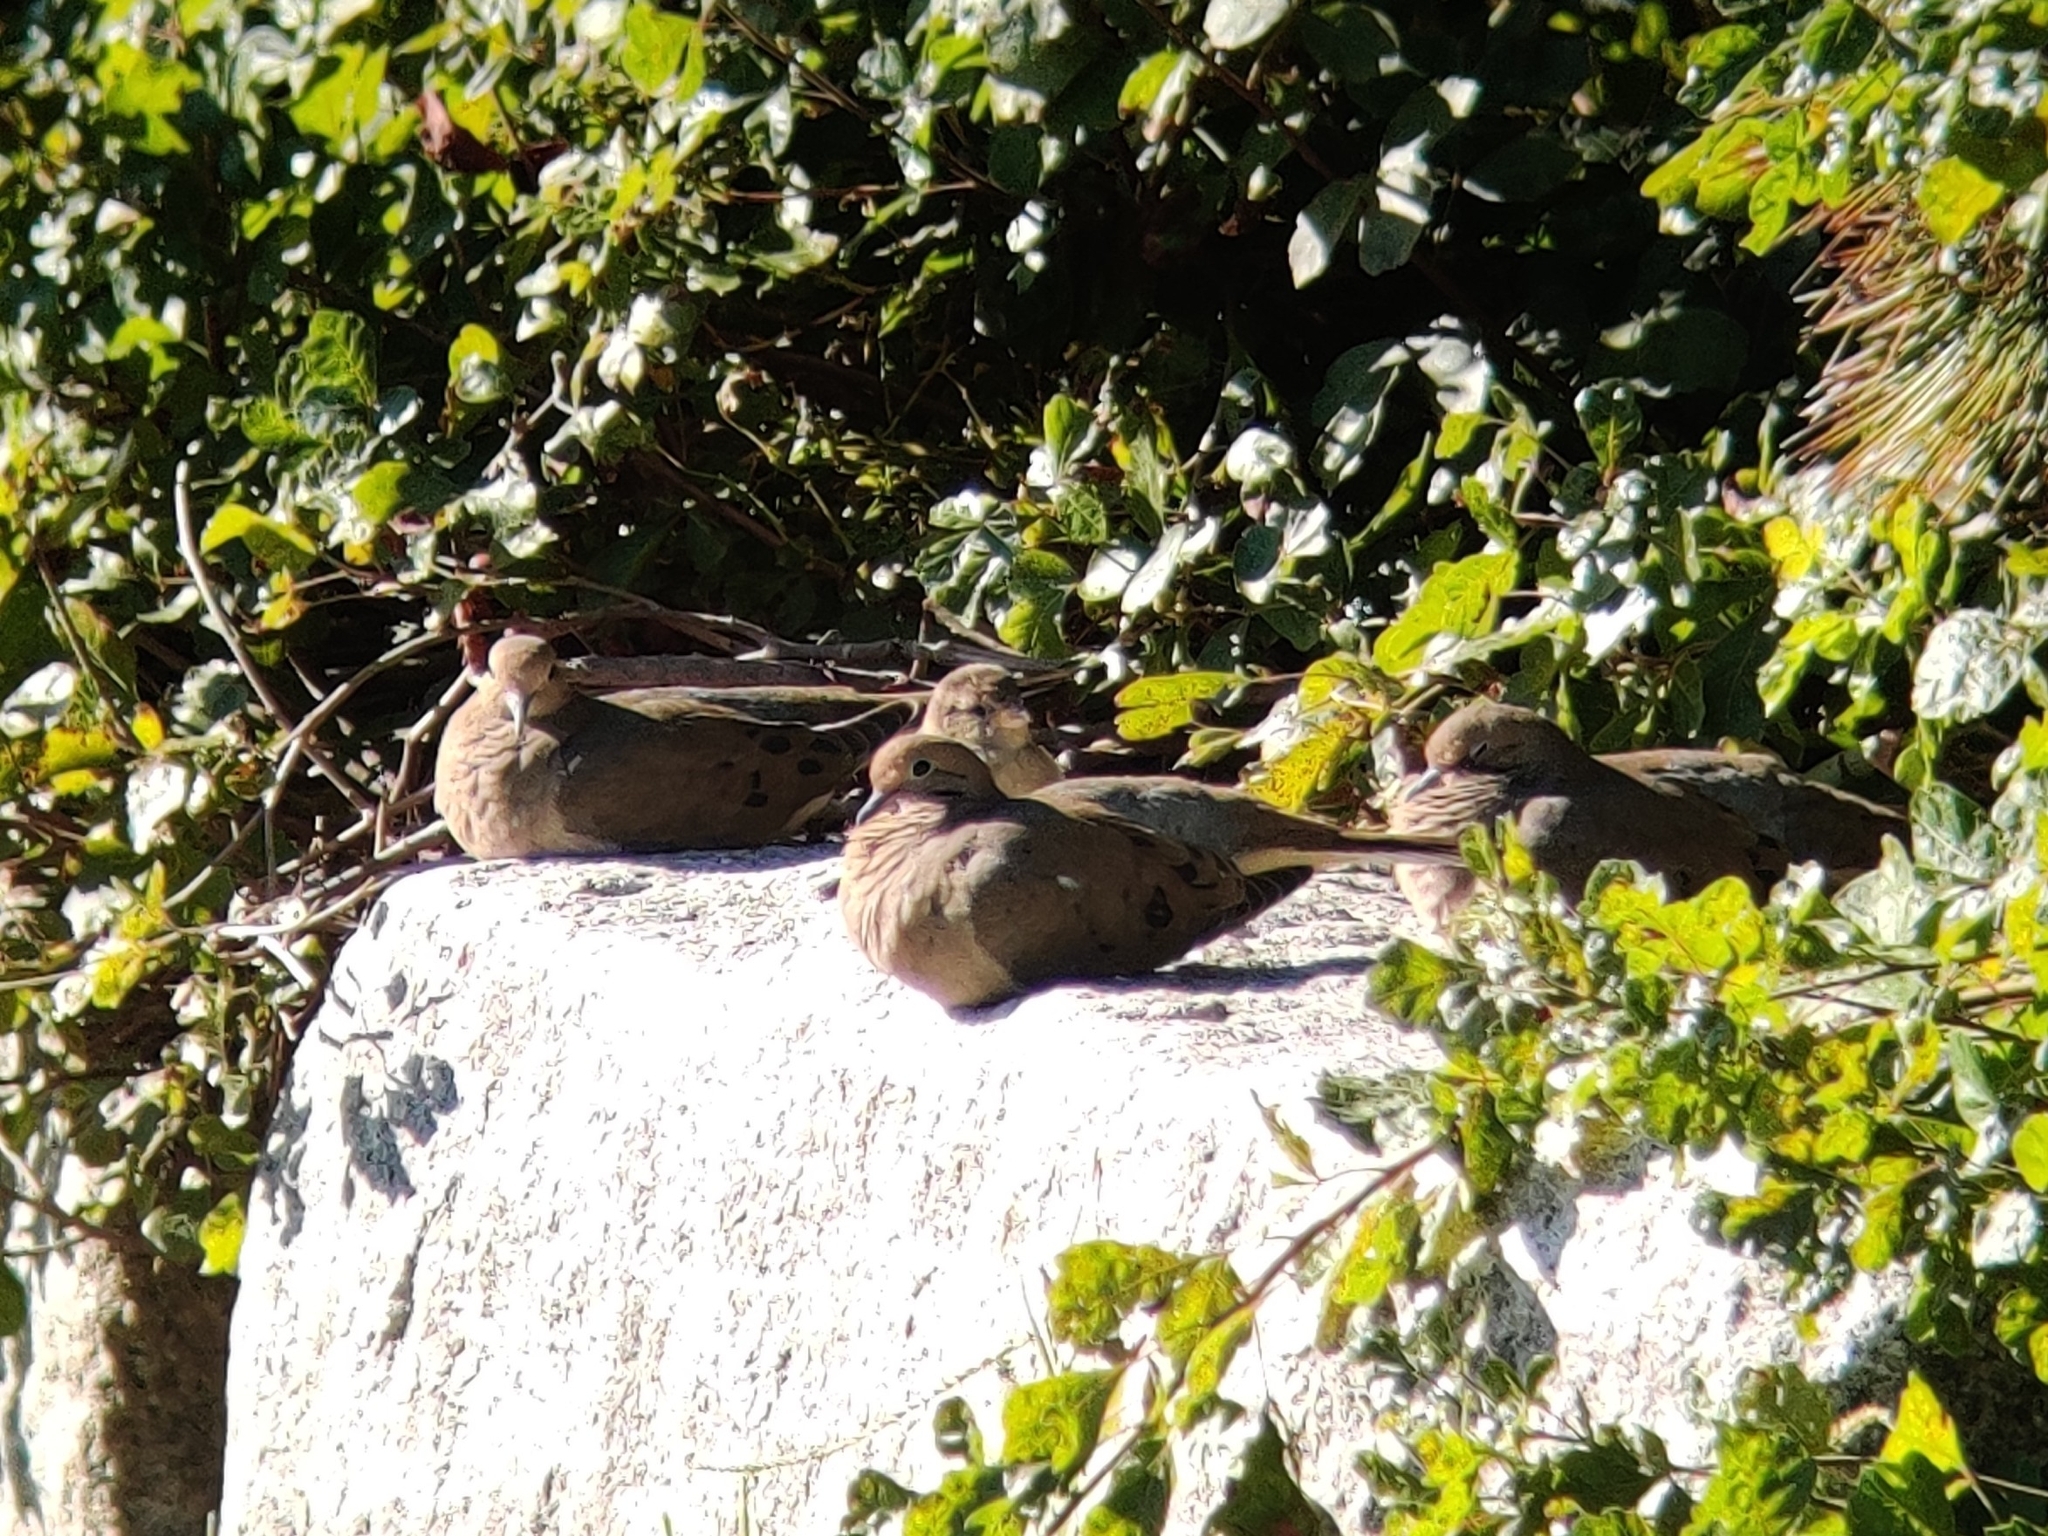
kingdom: Animalia
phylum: Chordata
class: Aves
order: Columbiformes
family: Columbidae
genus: Zenaida
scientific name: Zenaida macroura
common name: Mourning dove
